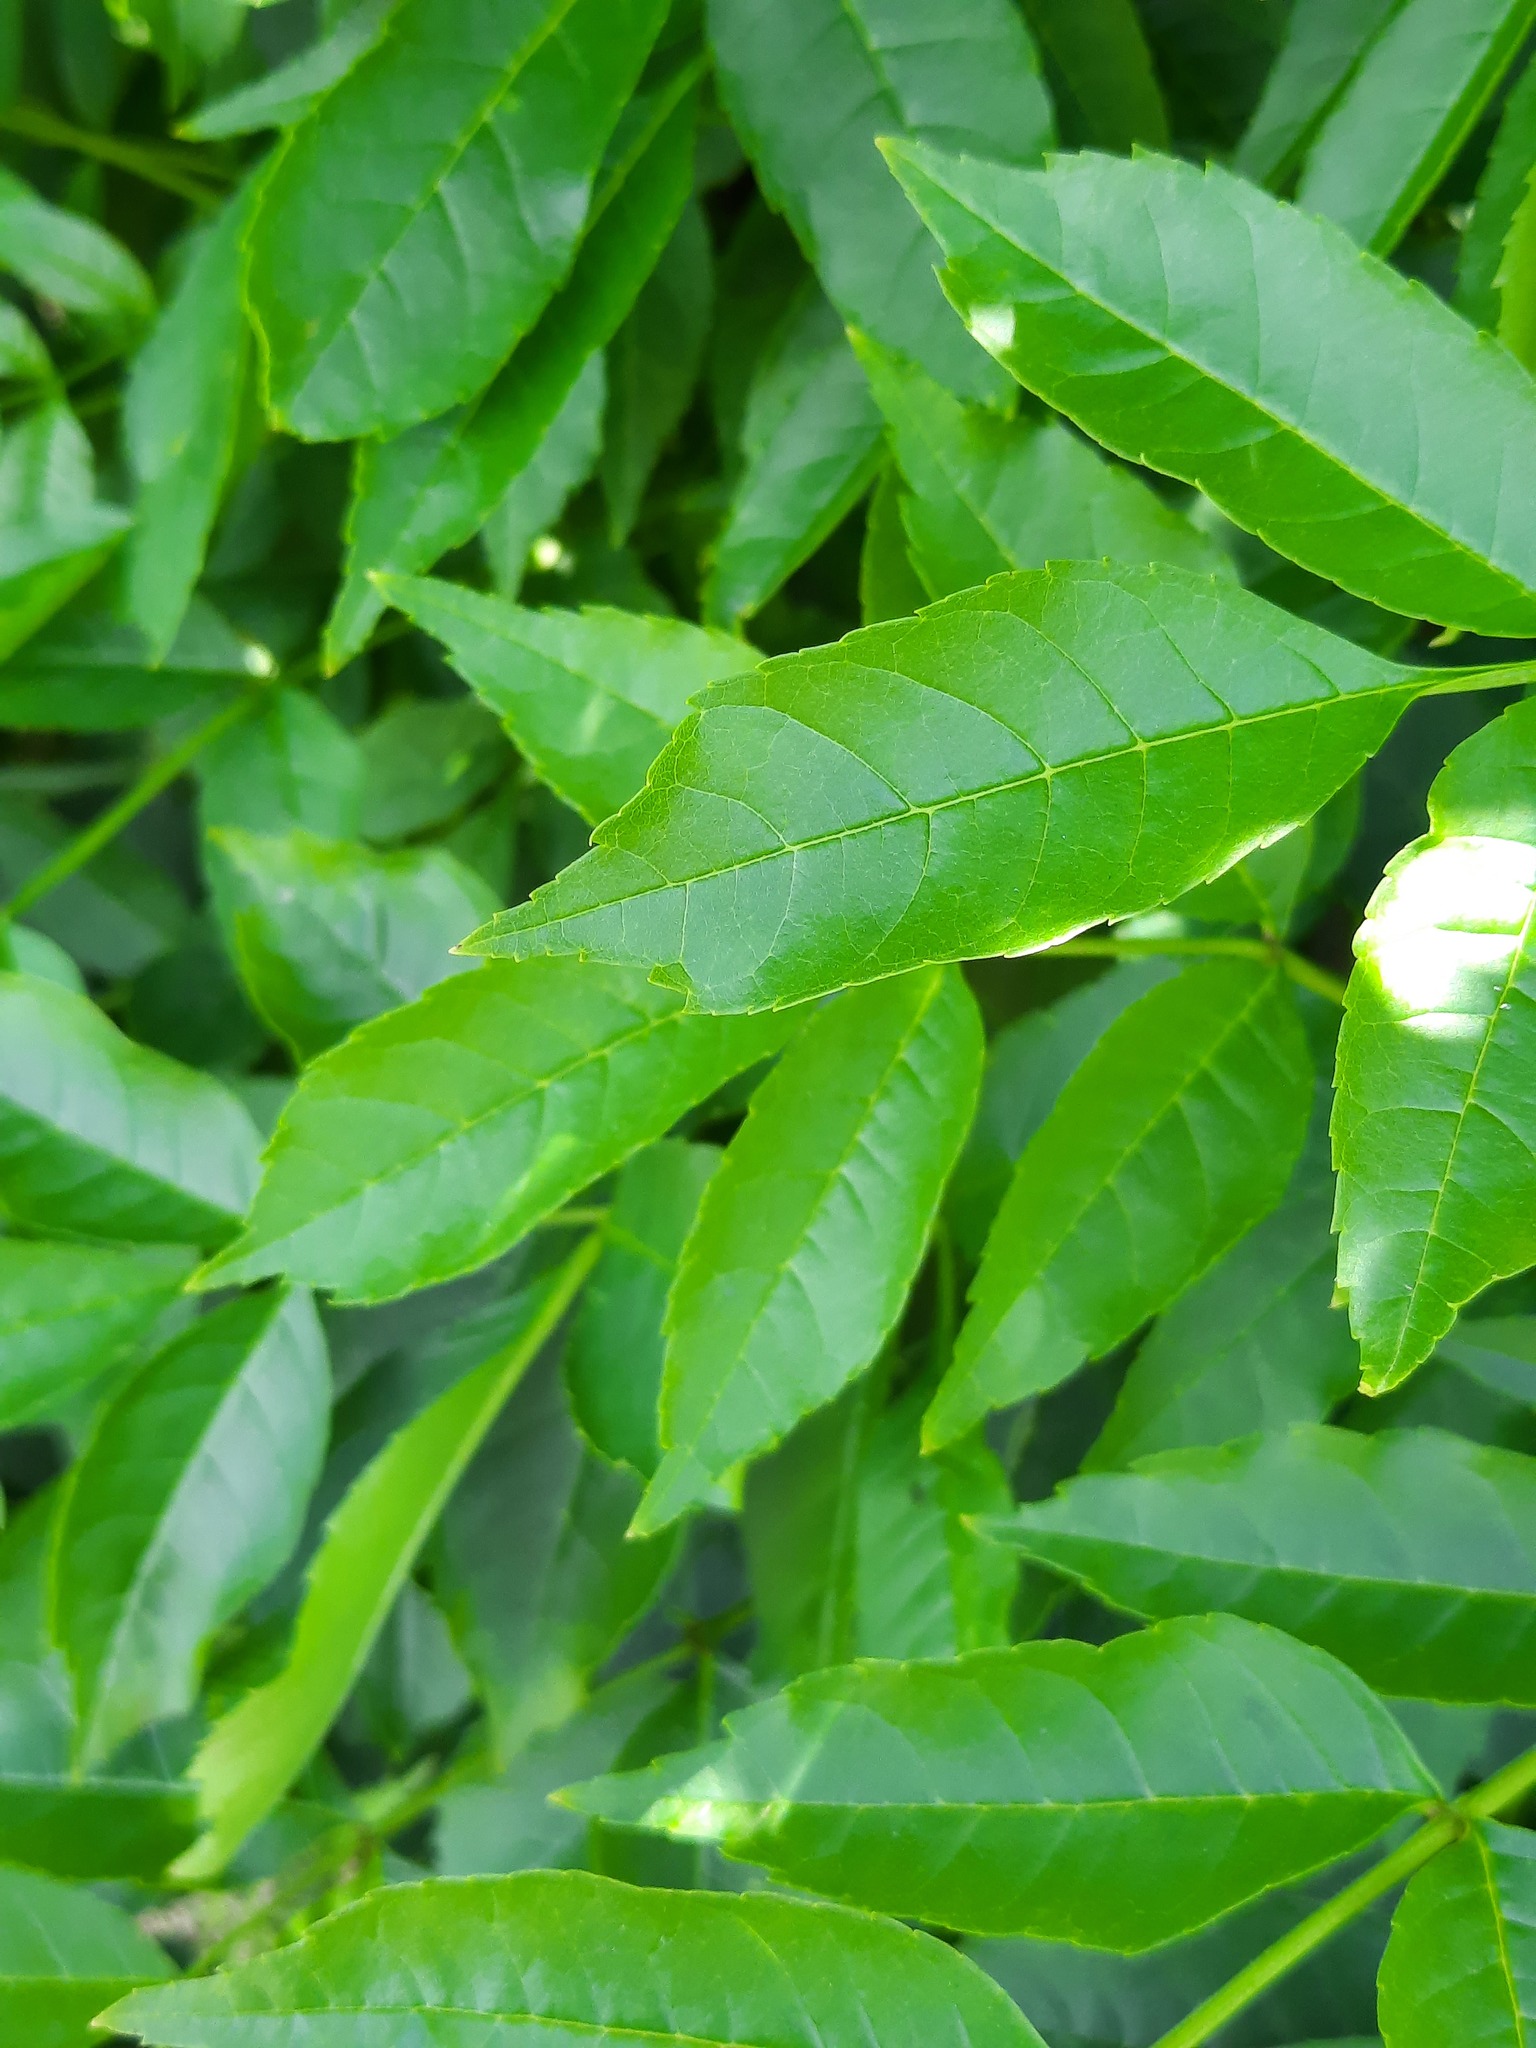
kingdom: Plantae
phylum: Tracheophyta
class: Magnoliopsida
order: Lamiales
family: Oleaceae
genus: Fraxinus
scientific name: Fraxinus excelsior
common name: European ash
